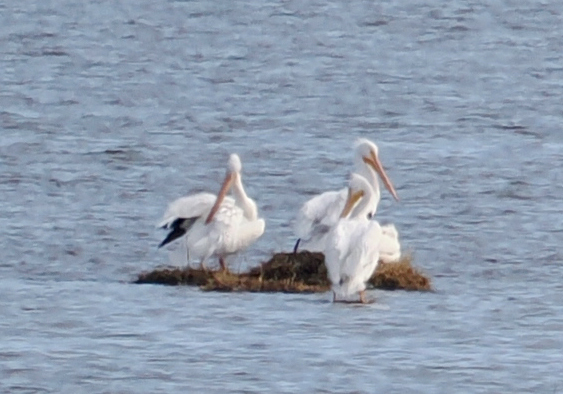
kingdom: Animalia
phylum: Chordata
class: Aves
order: Pelecaniformes
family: Pelecanidae
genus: Pelecanus
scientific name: Pelecanus erythrorhynchos
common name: American white pelican
